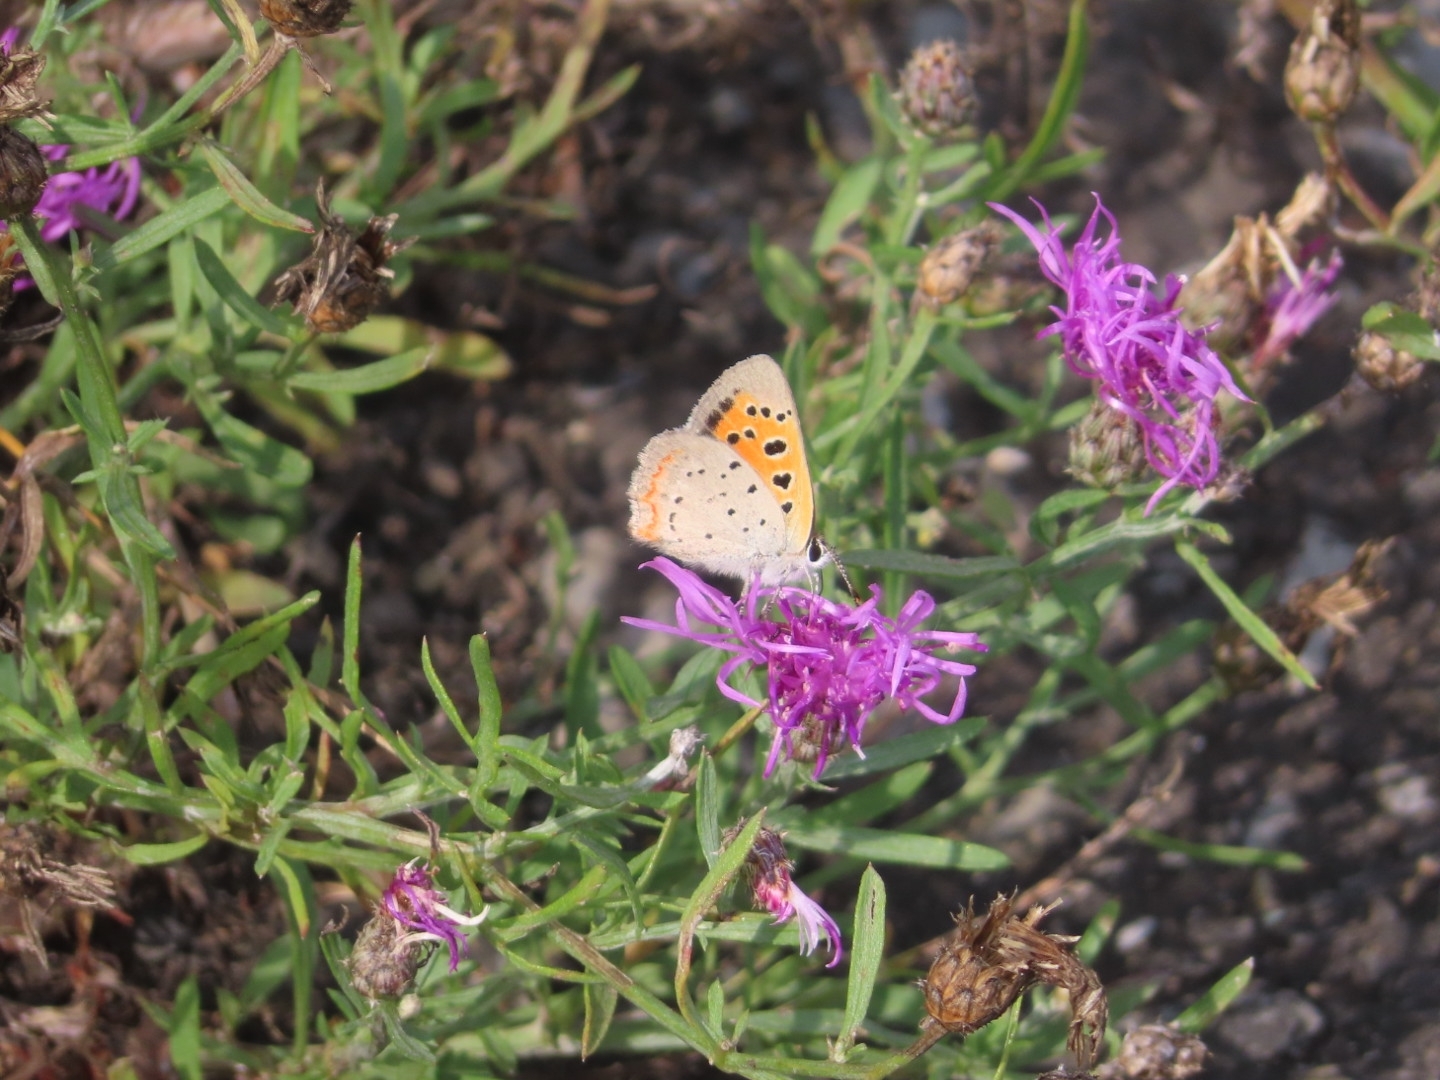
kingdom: Animalia
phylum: Arthropoda
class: Insecta
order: Lepidoptera
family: Lycaenidae
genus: Lycaena
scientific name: Lycaena hypophlaeas
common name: American copper
